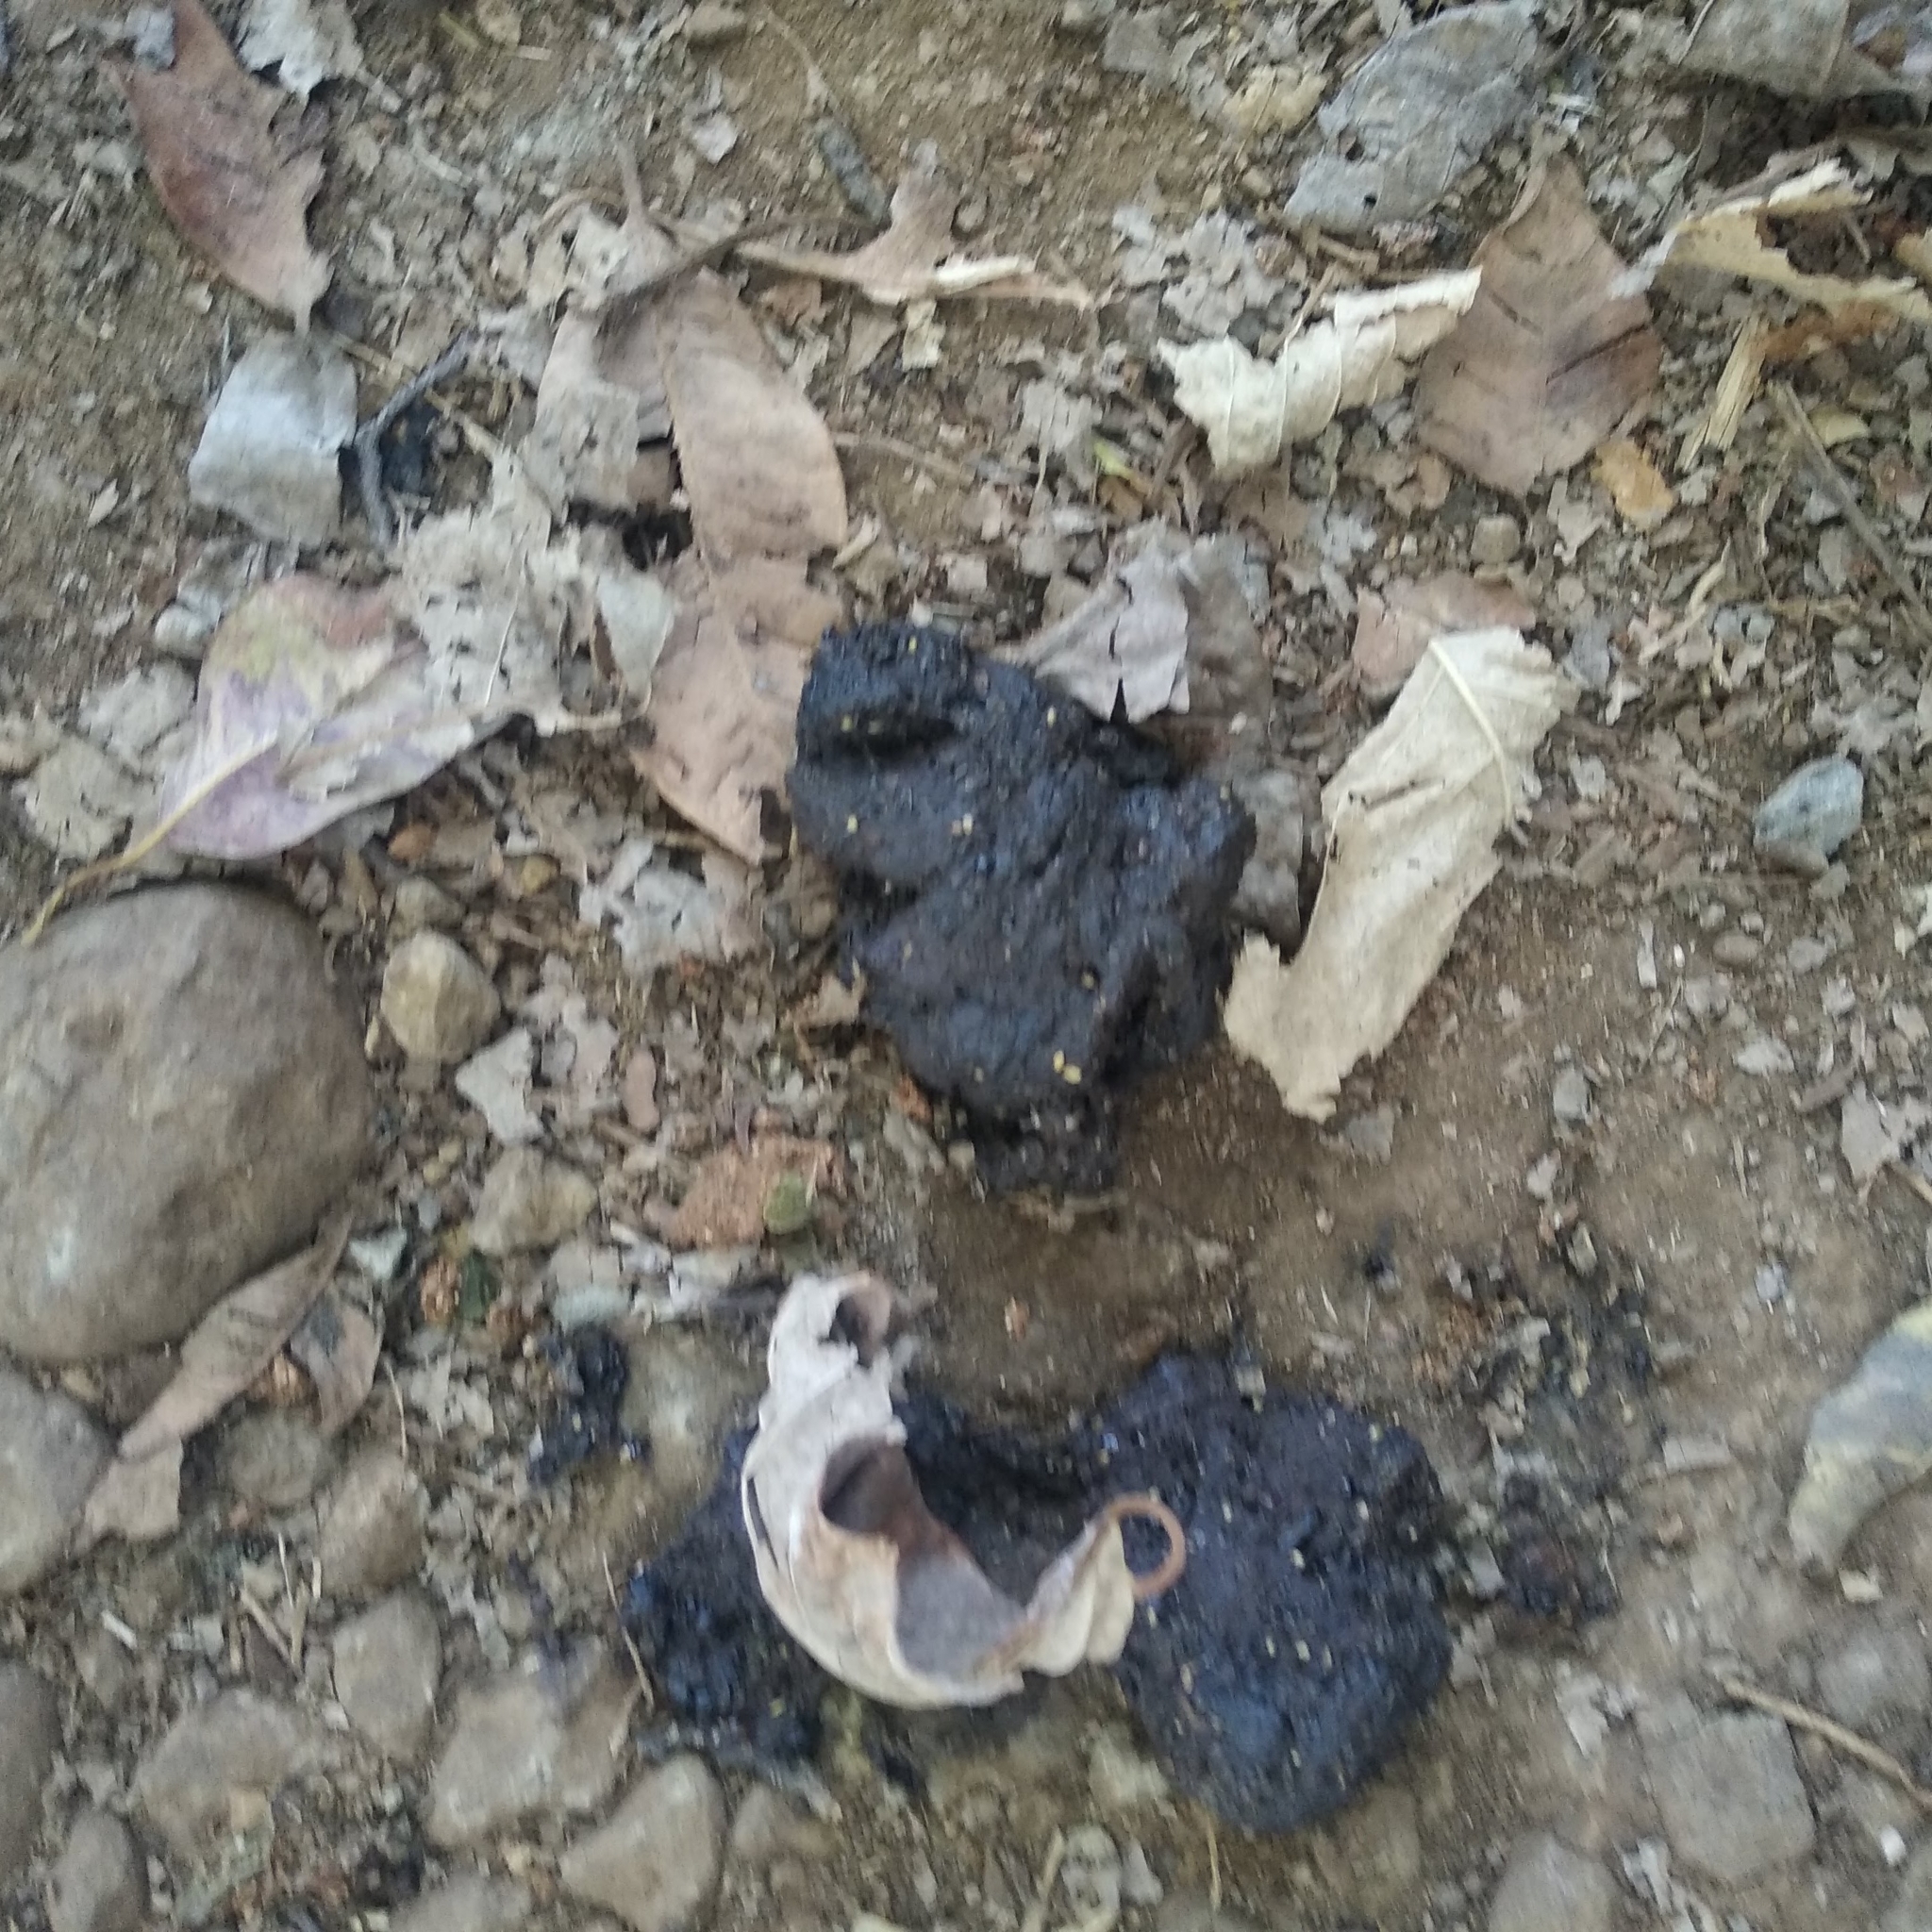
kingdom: Animalia
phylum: Chordata
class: Mammalia
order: Carnivora
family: Ursidae
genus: Melursus
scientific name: Melursus ursinus
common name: Sloth bear
